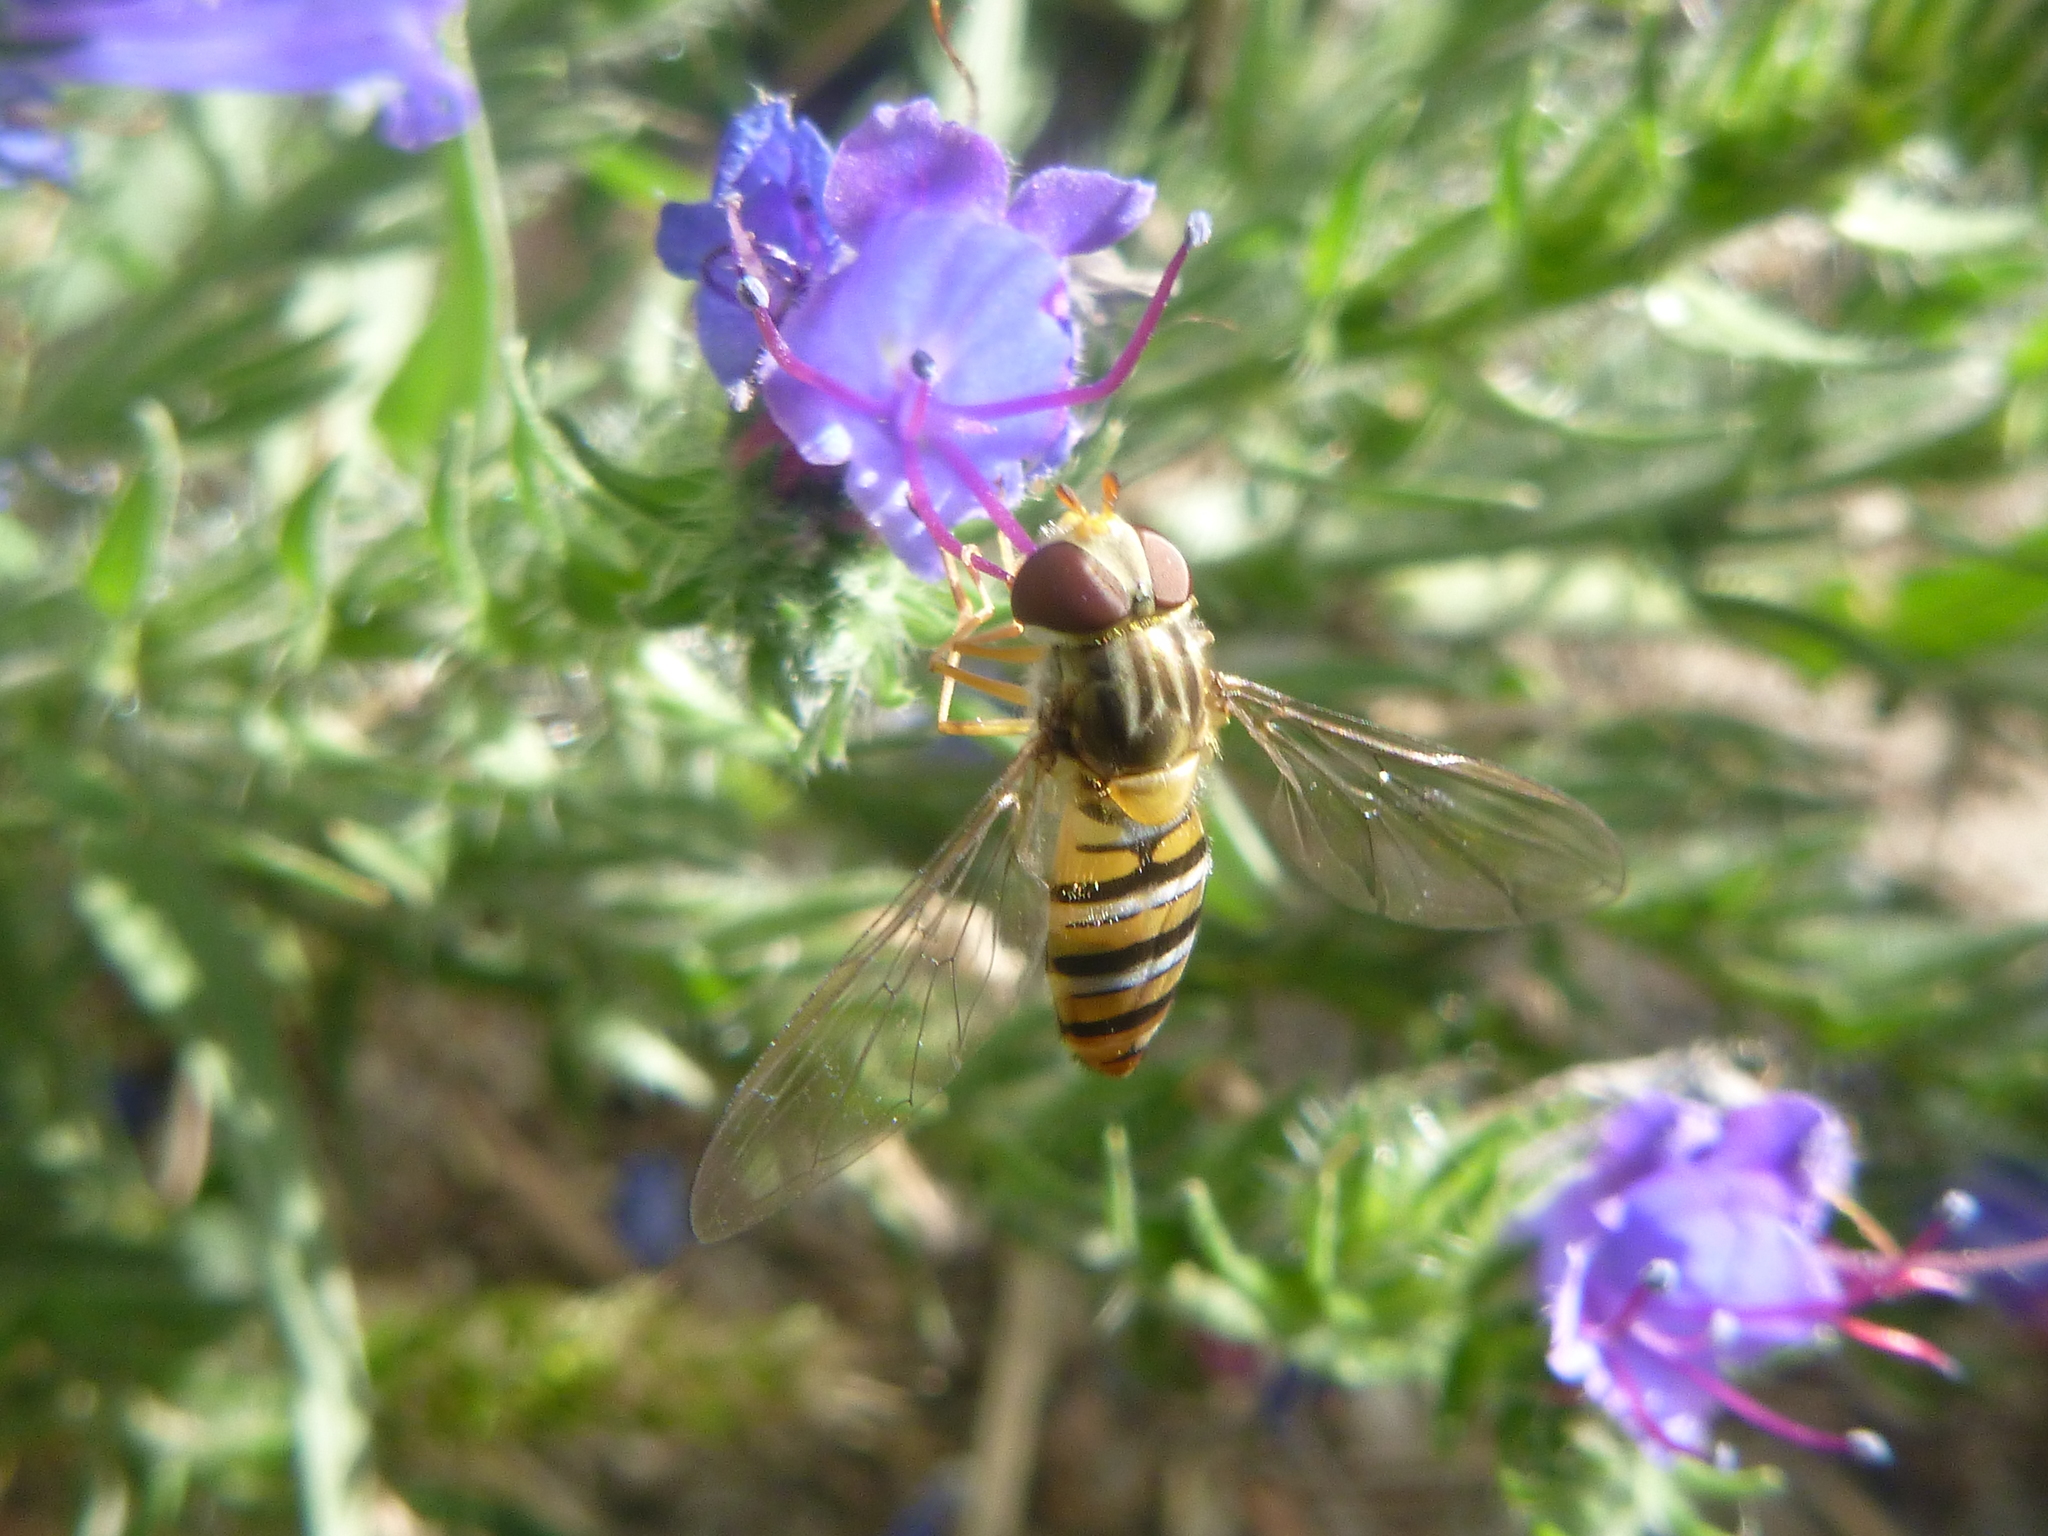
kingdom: Animalia
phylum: Arthropoda
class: Insecta
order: Diptera
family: Syrphidae
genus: Episyrphus
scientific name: Episyrphus balteatus
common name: Marmalade hoverfly
